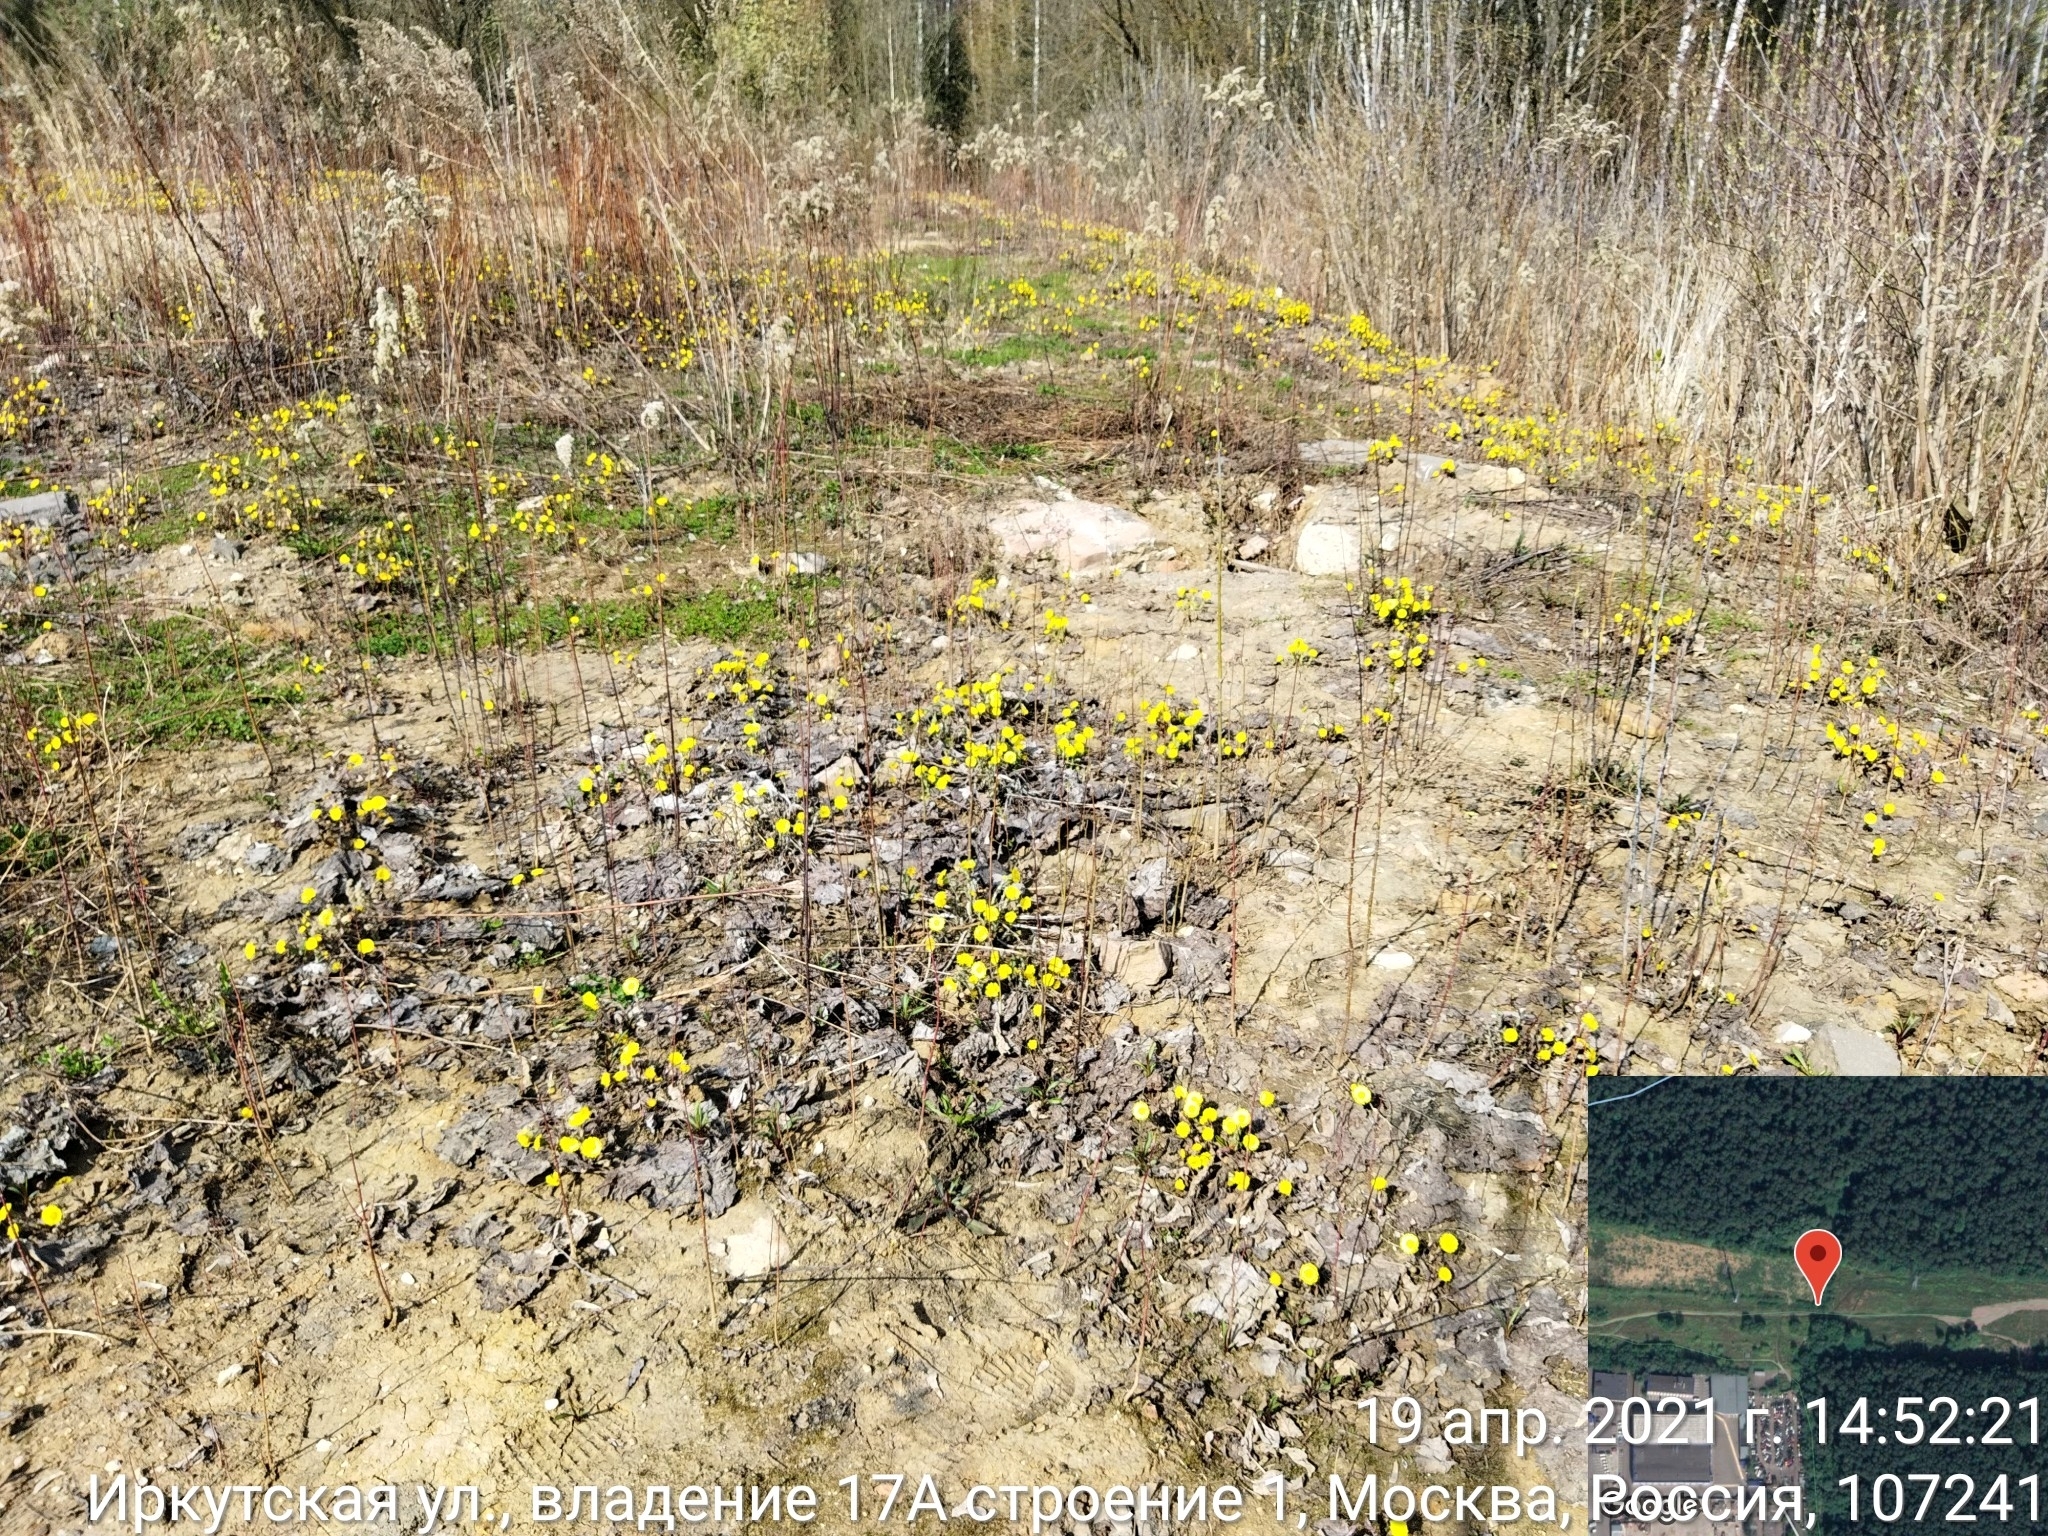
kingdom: Plantae
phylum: Tracheophyta
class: Magnoliopsida
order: Asterales
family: Asteraceae
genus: Tussilago
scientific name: Tussilago farfara
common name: Coltsfoot
